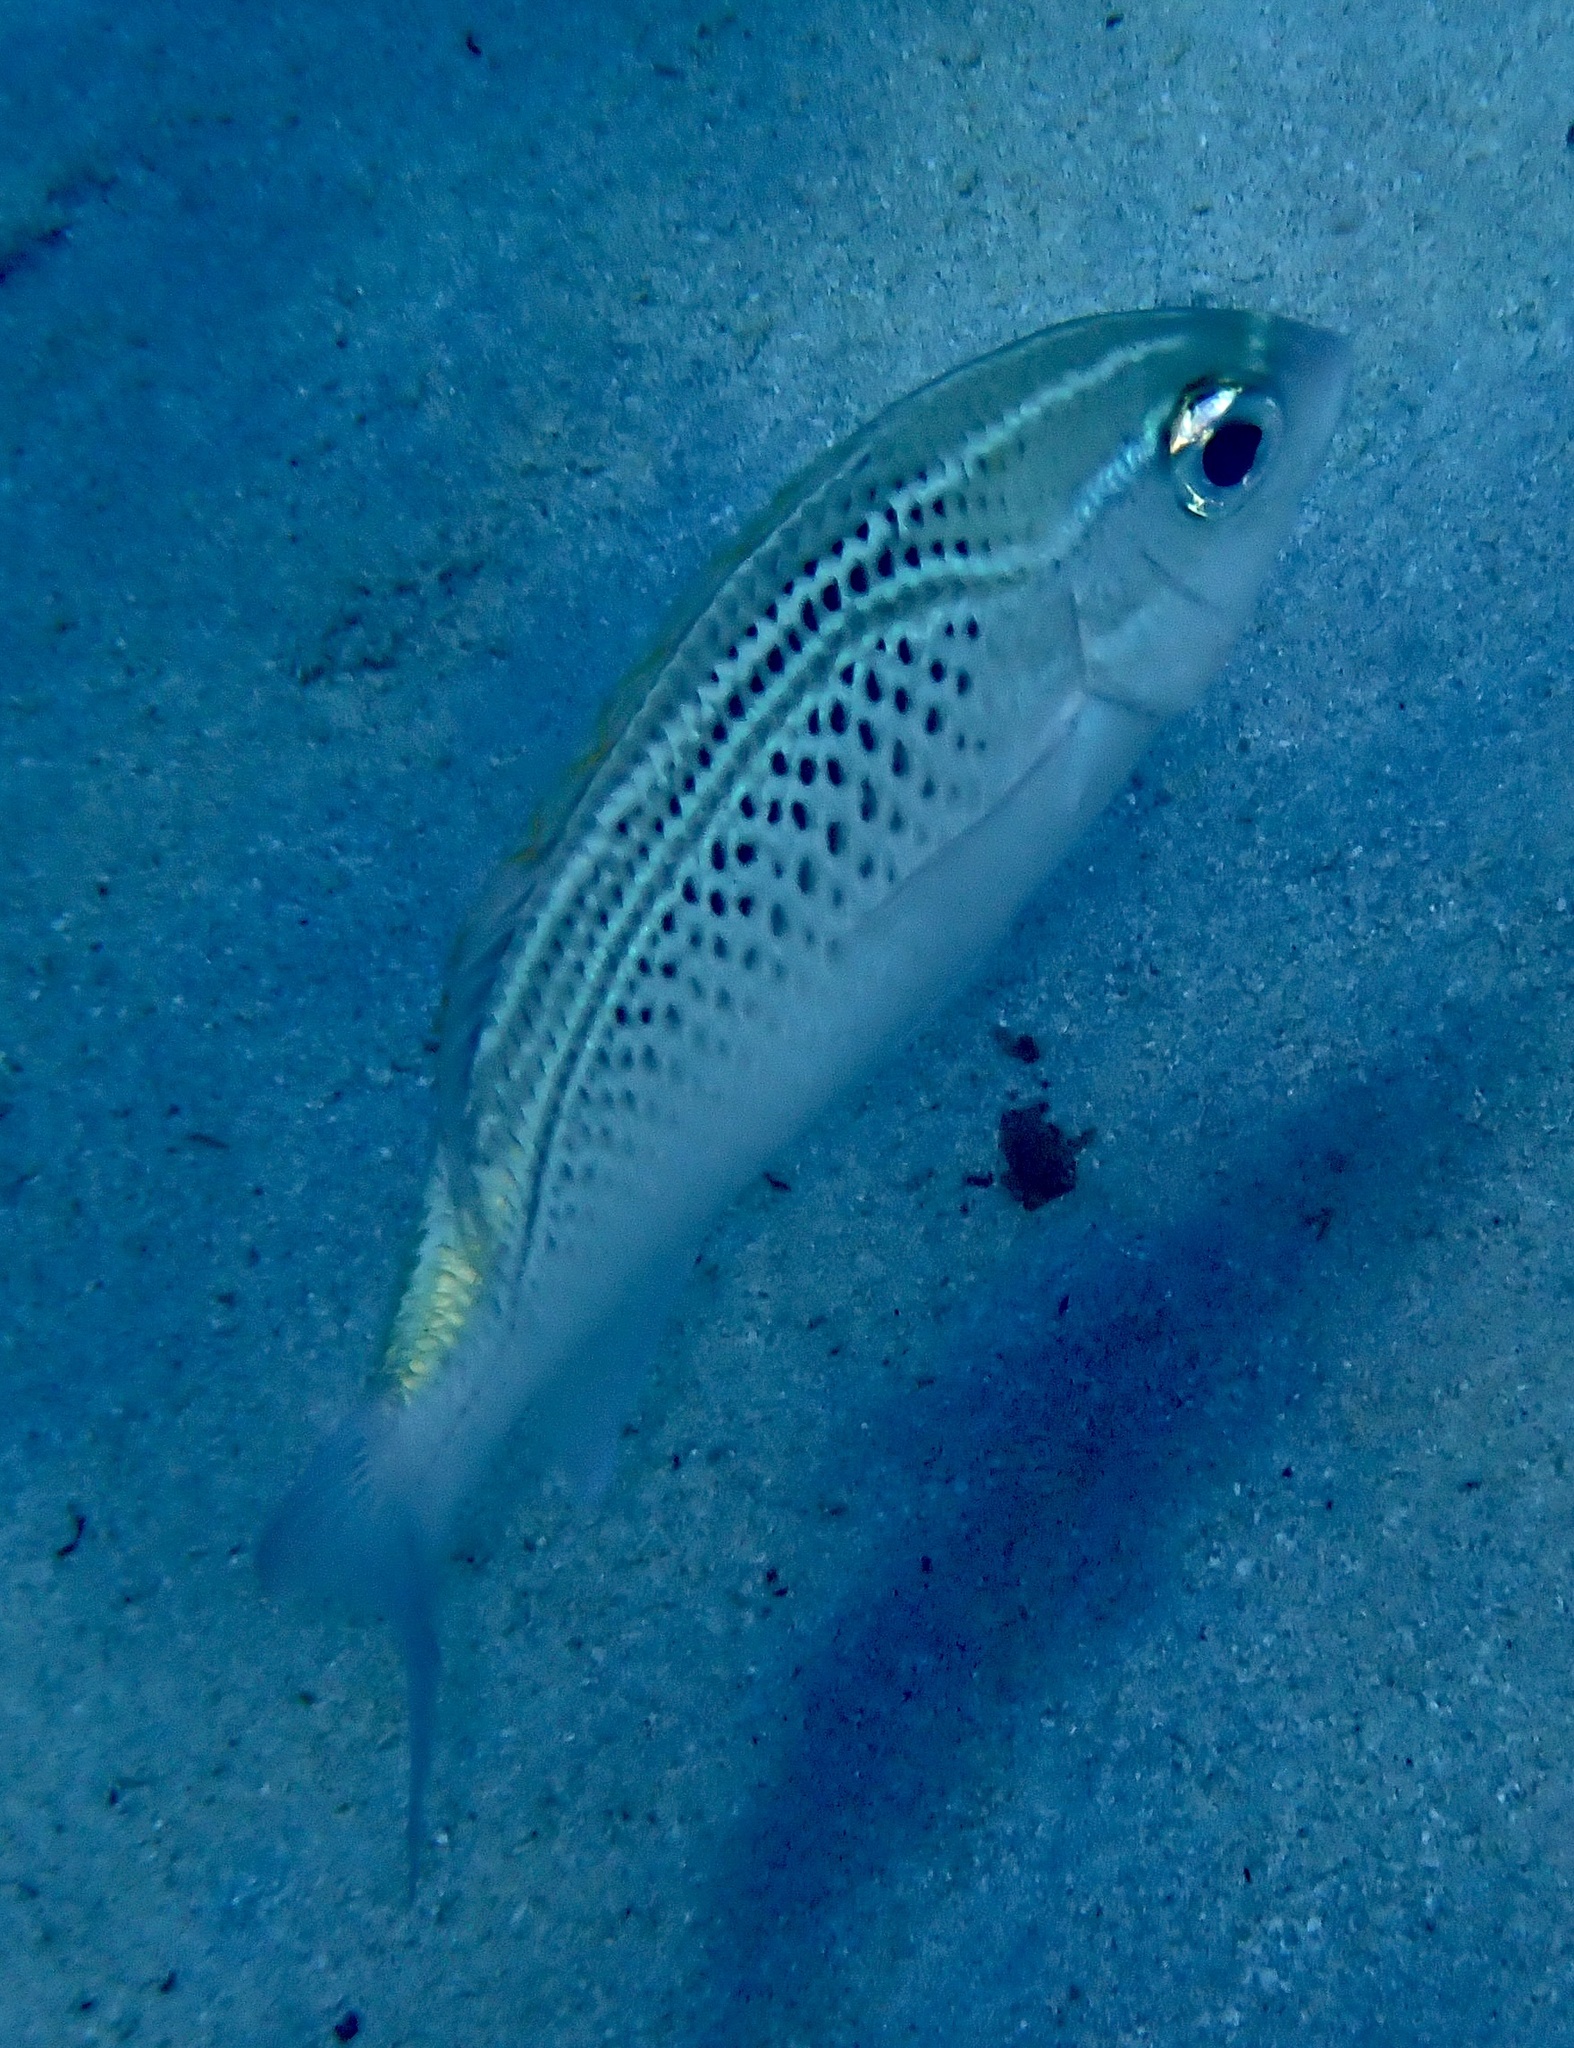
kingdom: Animalia
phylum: Chordata
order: Perciformes
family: Nemipteridae
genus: Scolopsis
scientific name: Scolopsis ghanam
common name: Arabian monocle bream
